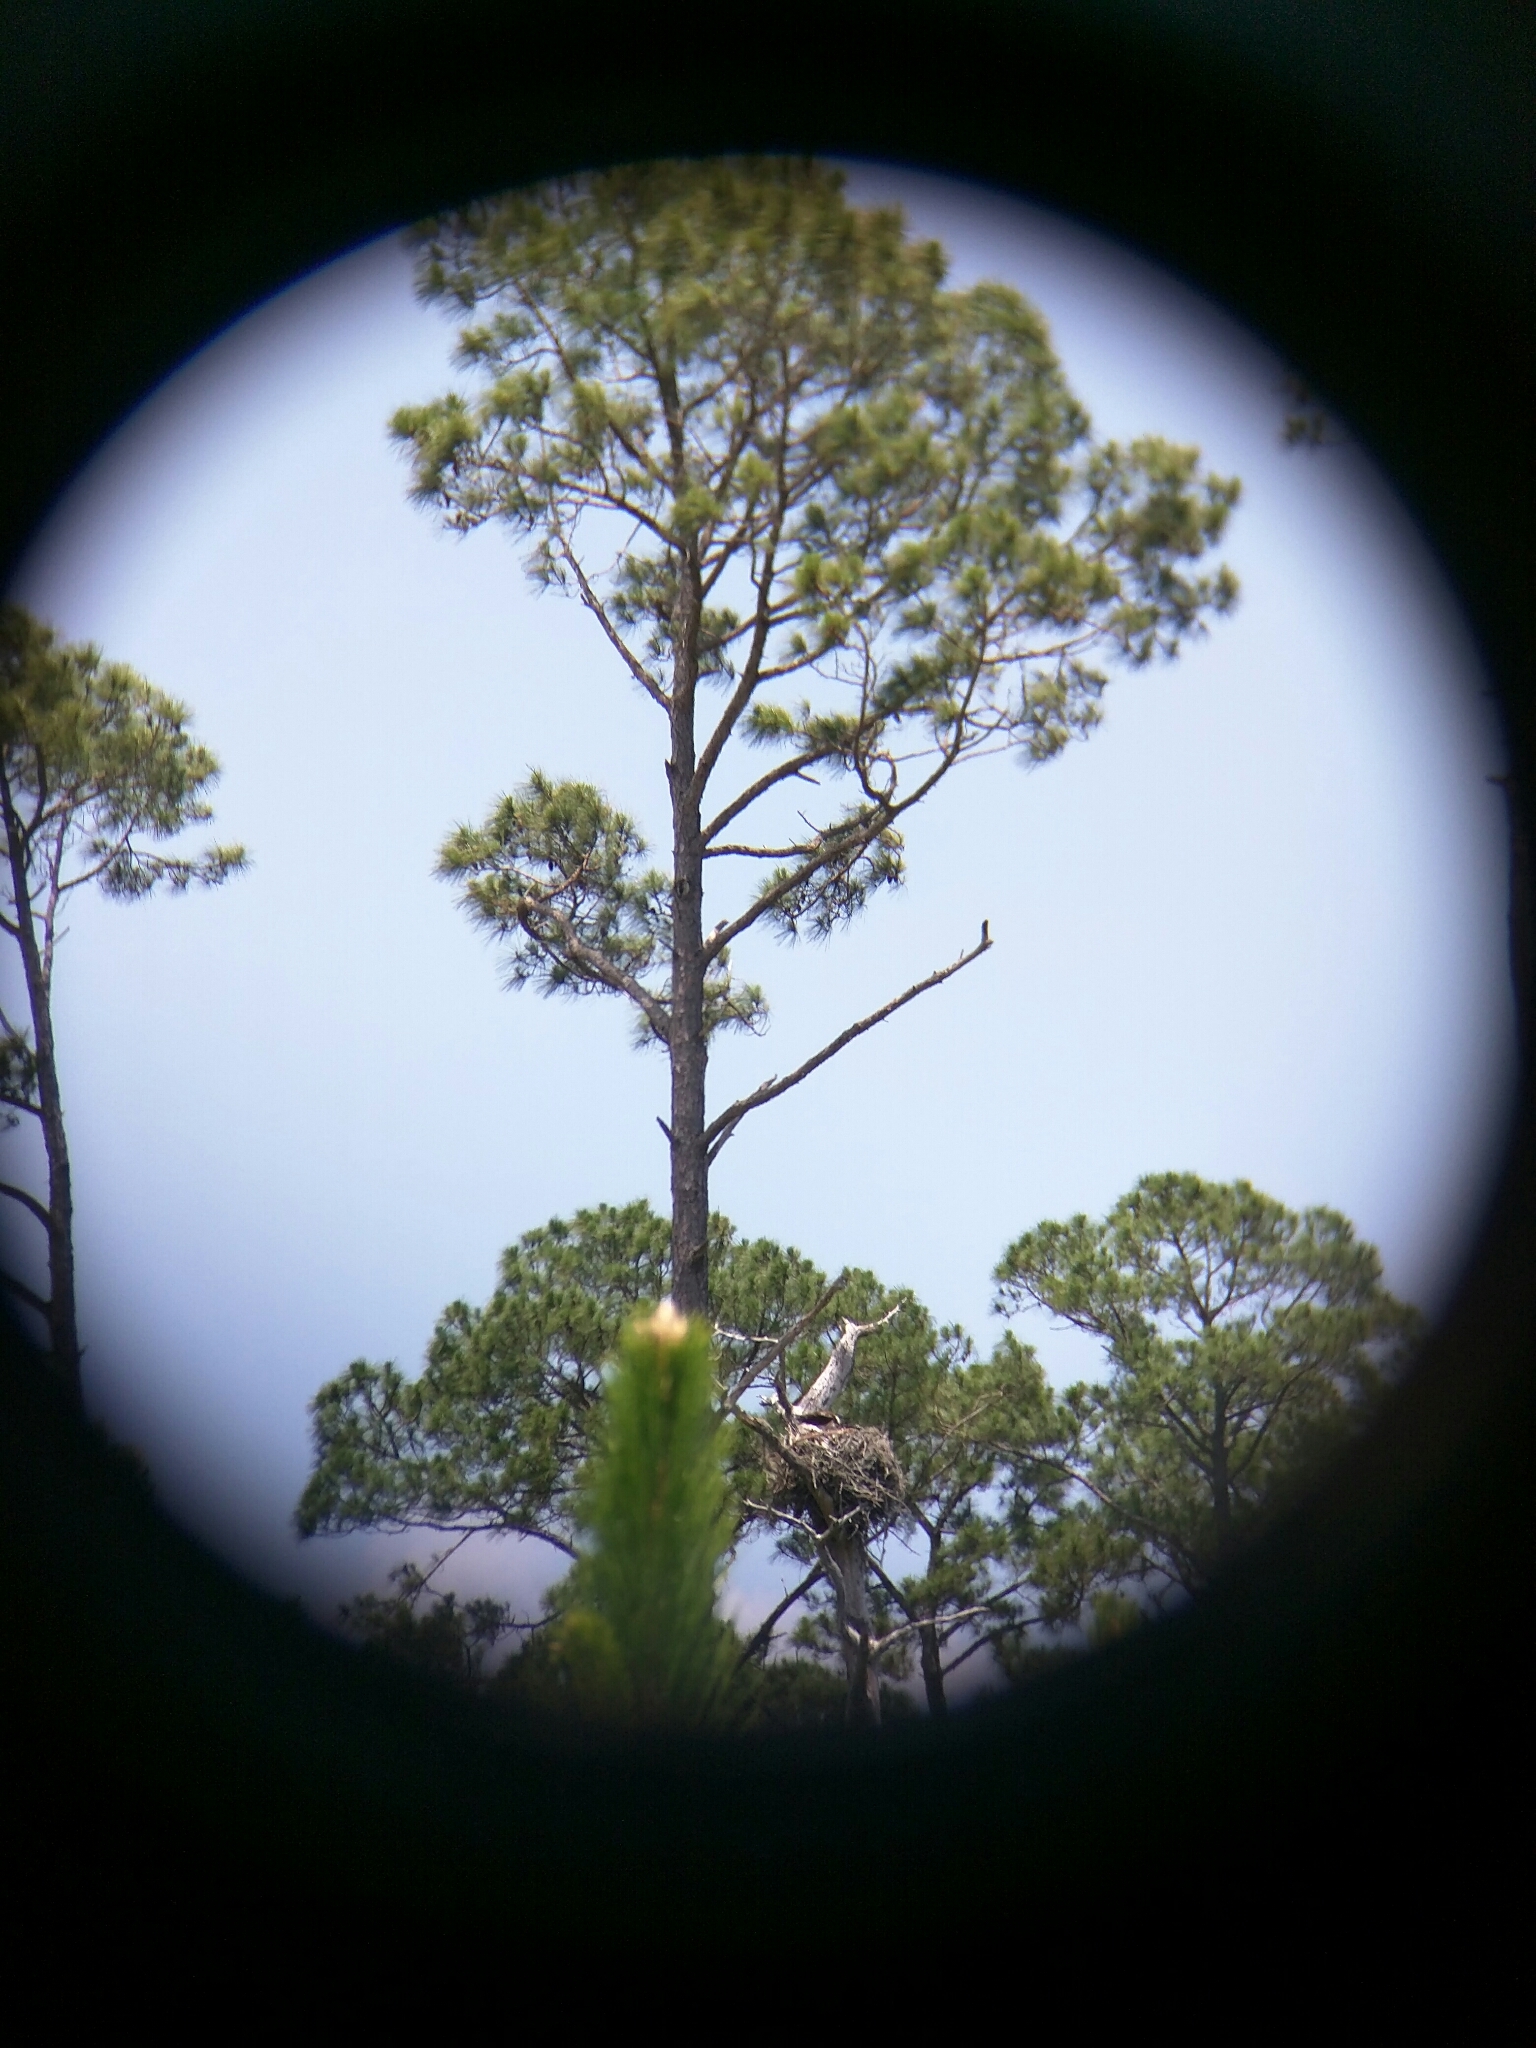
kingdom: Animalia
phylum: Chordata
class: Aves
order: Accipitriformes
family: Pandionidae
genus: Pandion
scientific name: Pandion haliaetus
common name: Osprey
